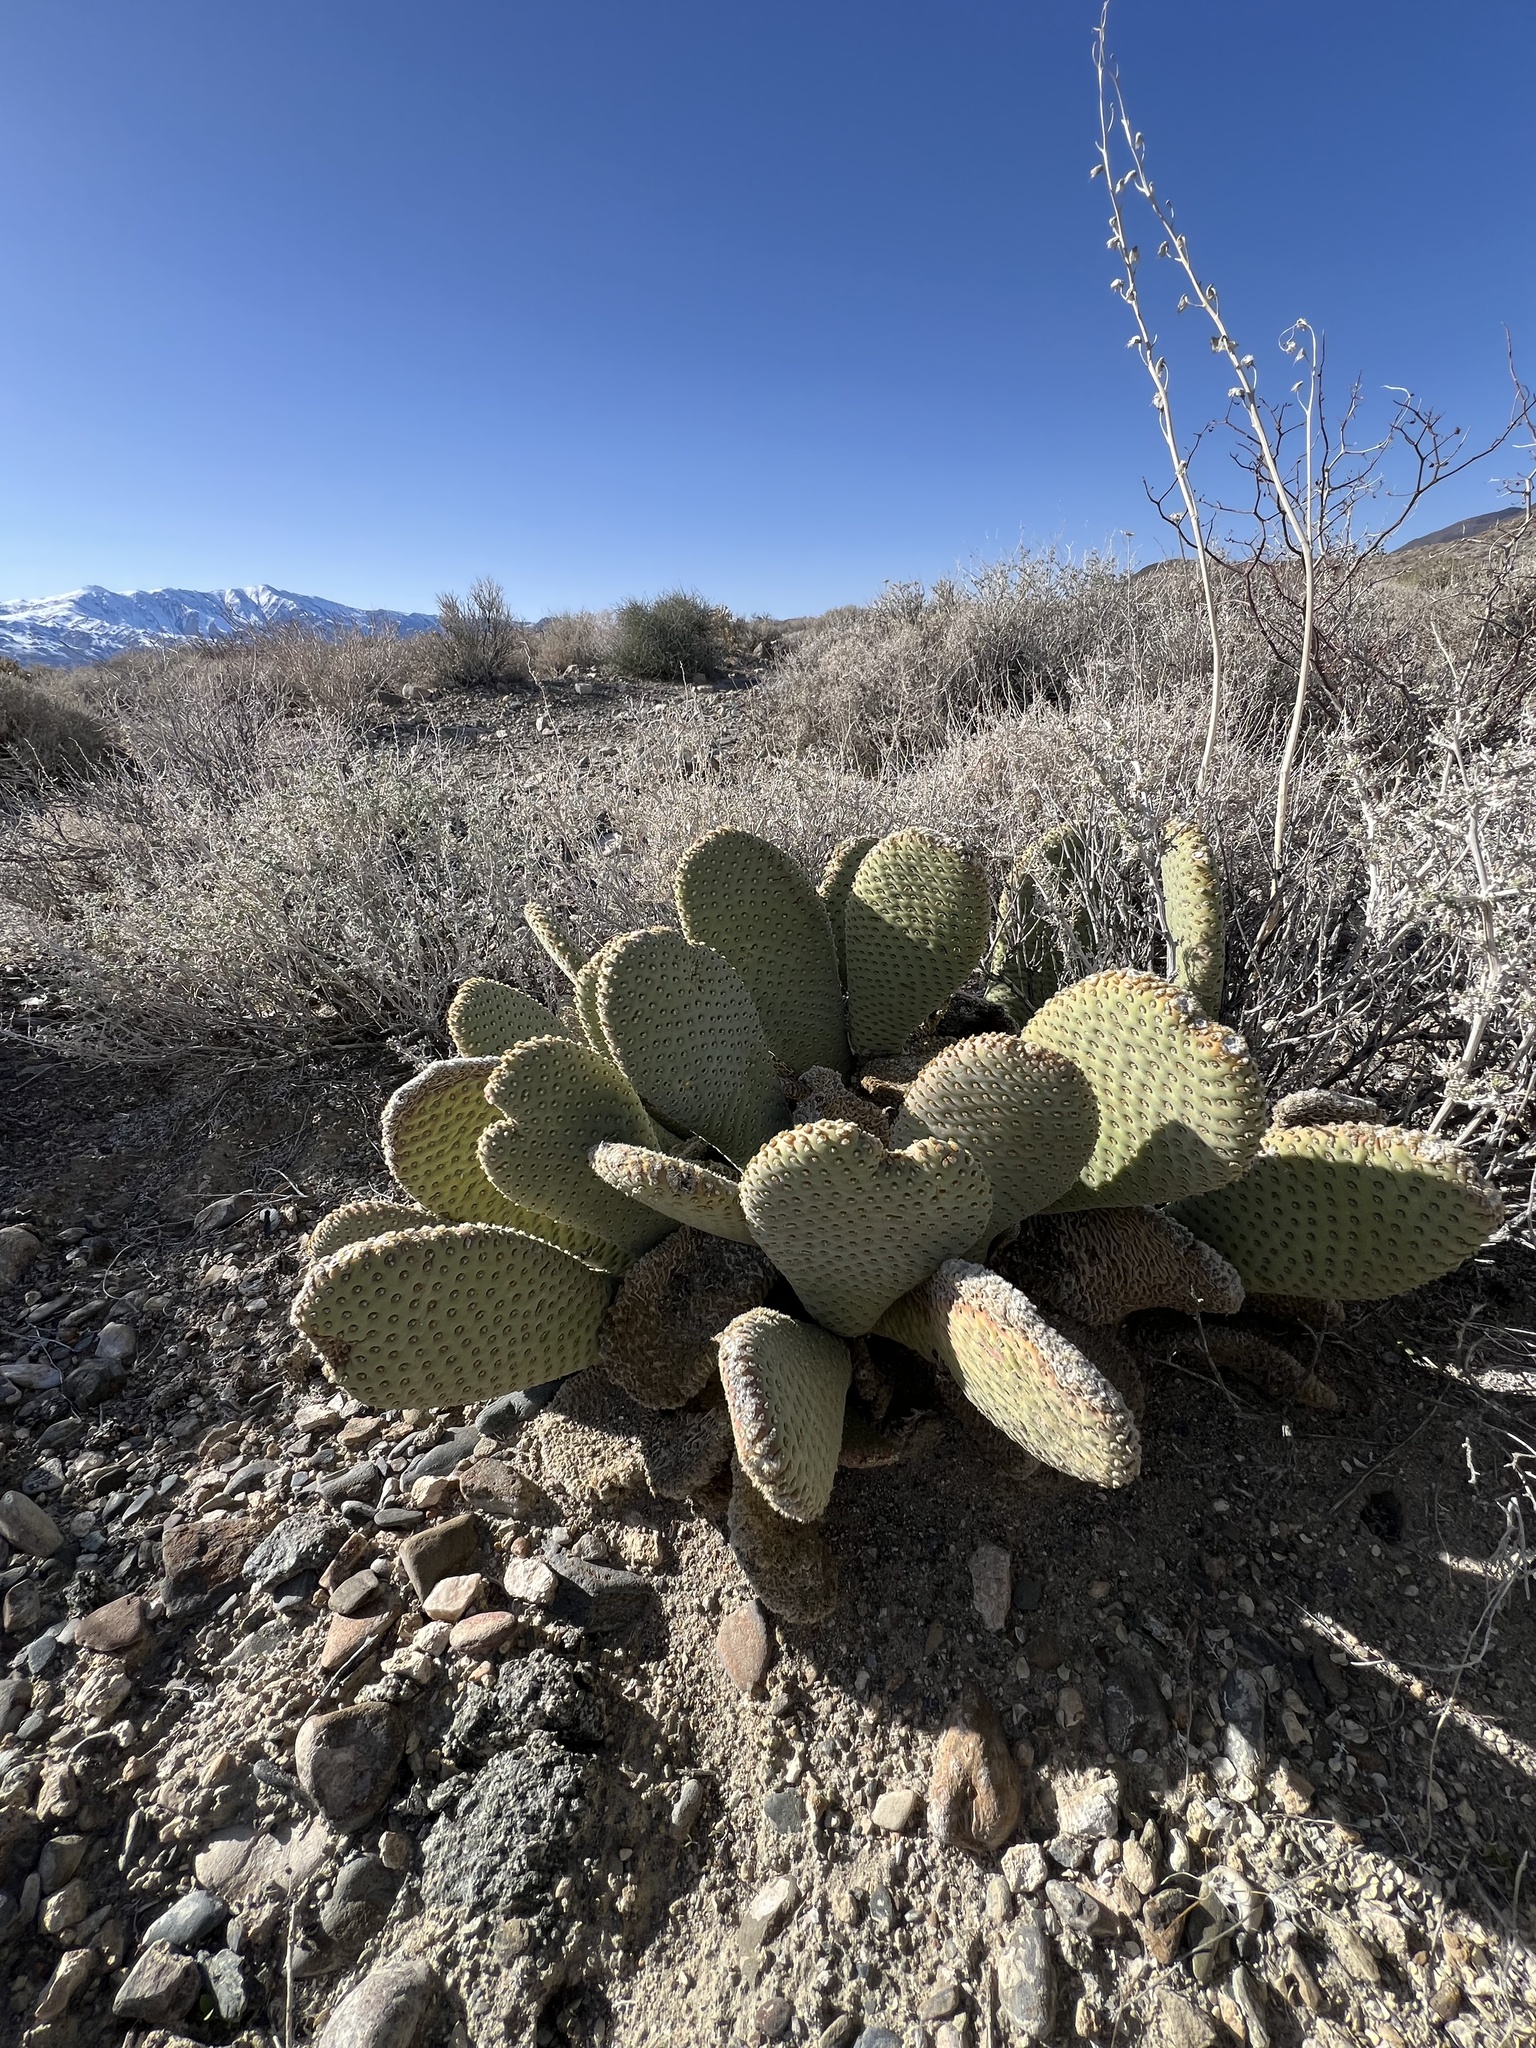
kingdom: Plantae
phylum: Tracheophyta
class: Magnoliopsida
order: Caryophyllales
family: Cactaceae
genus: Opuntia
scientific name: Opuntia basilaris
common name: Beavertail prickly-pear
